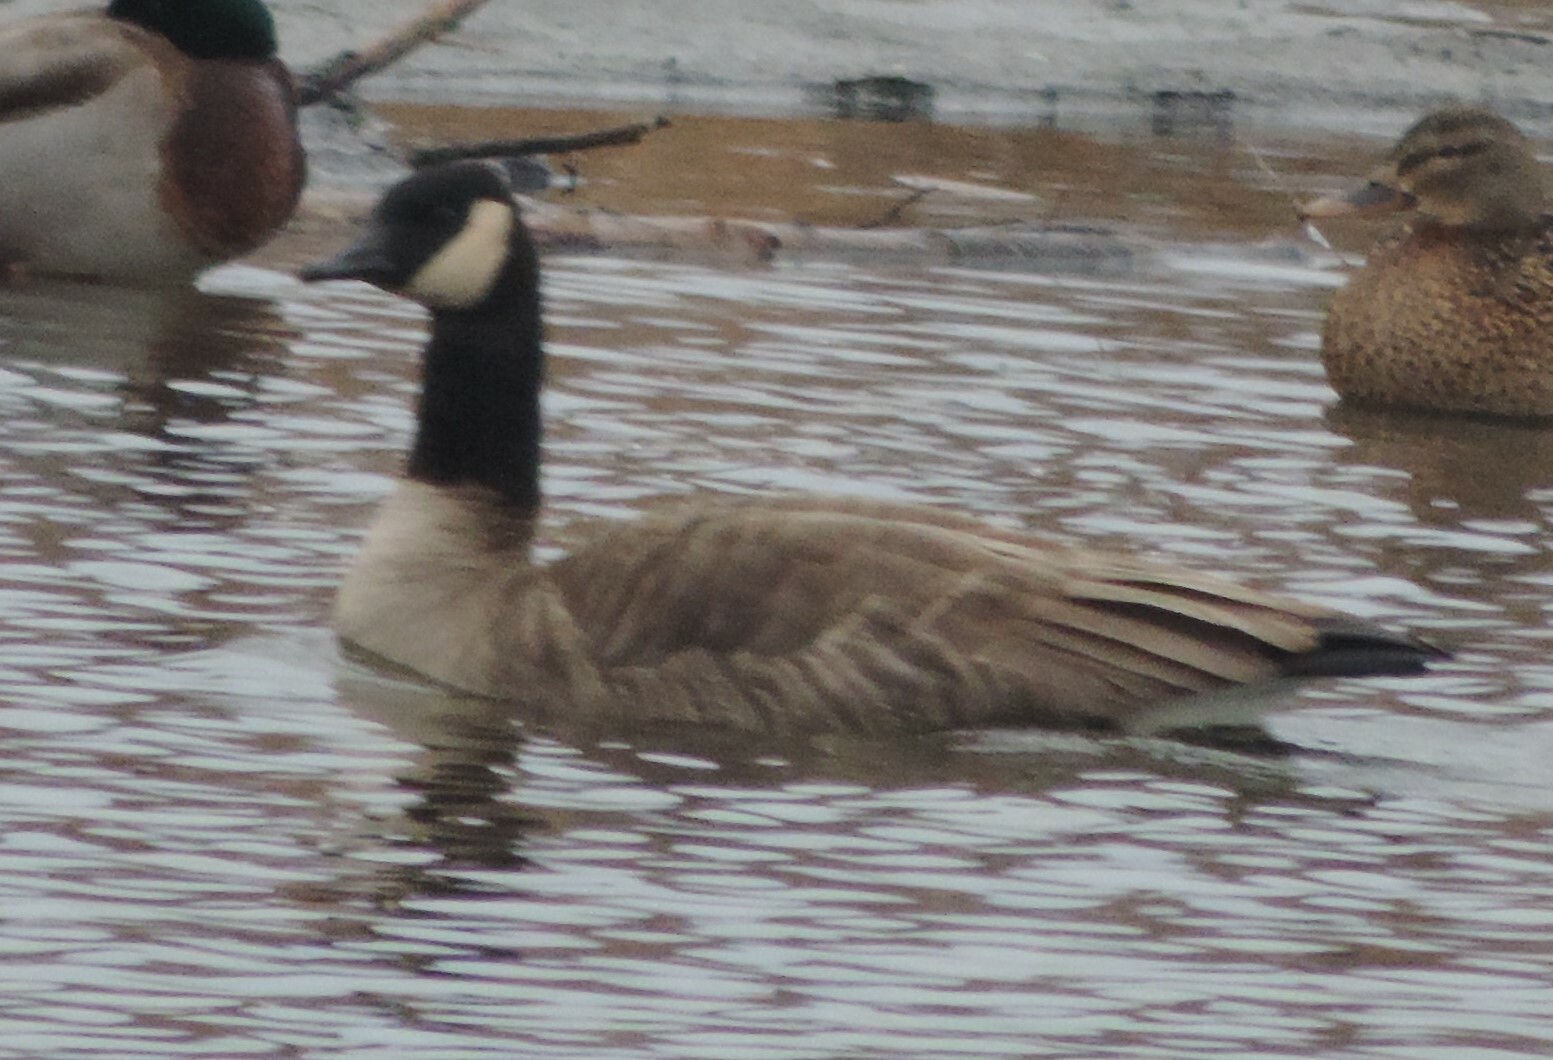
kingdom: Animalia
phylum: Chordata
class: Aves
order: Anseriformes
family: Anatidae
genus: Branta
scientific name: Branta canadensis
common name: Canada goose
